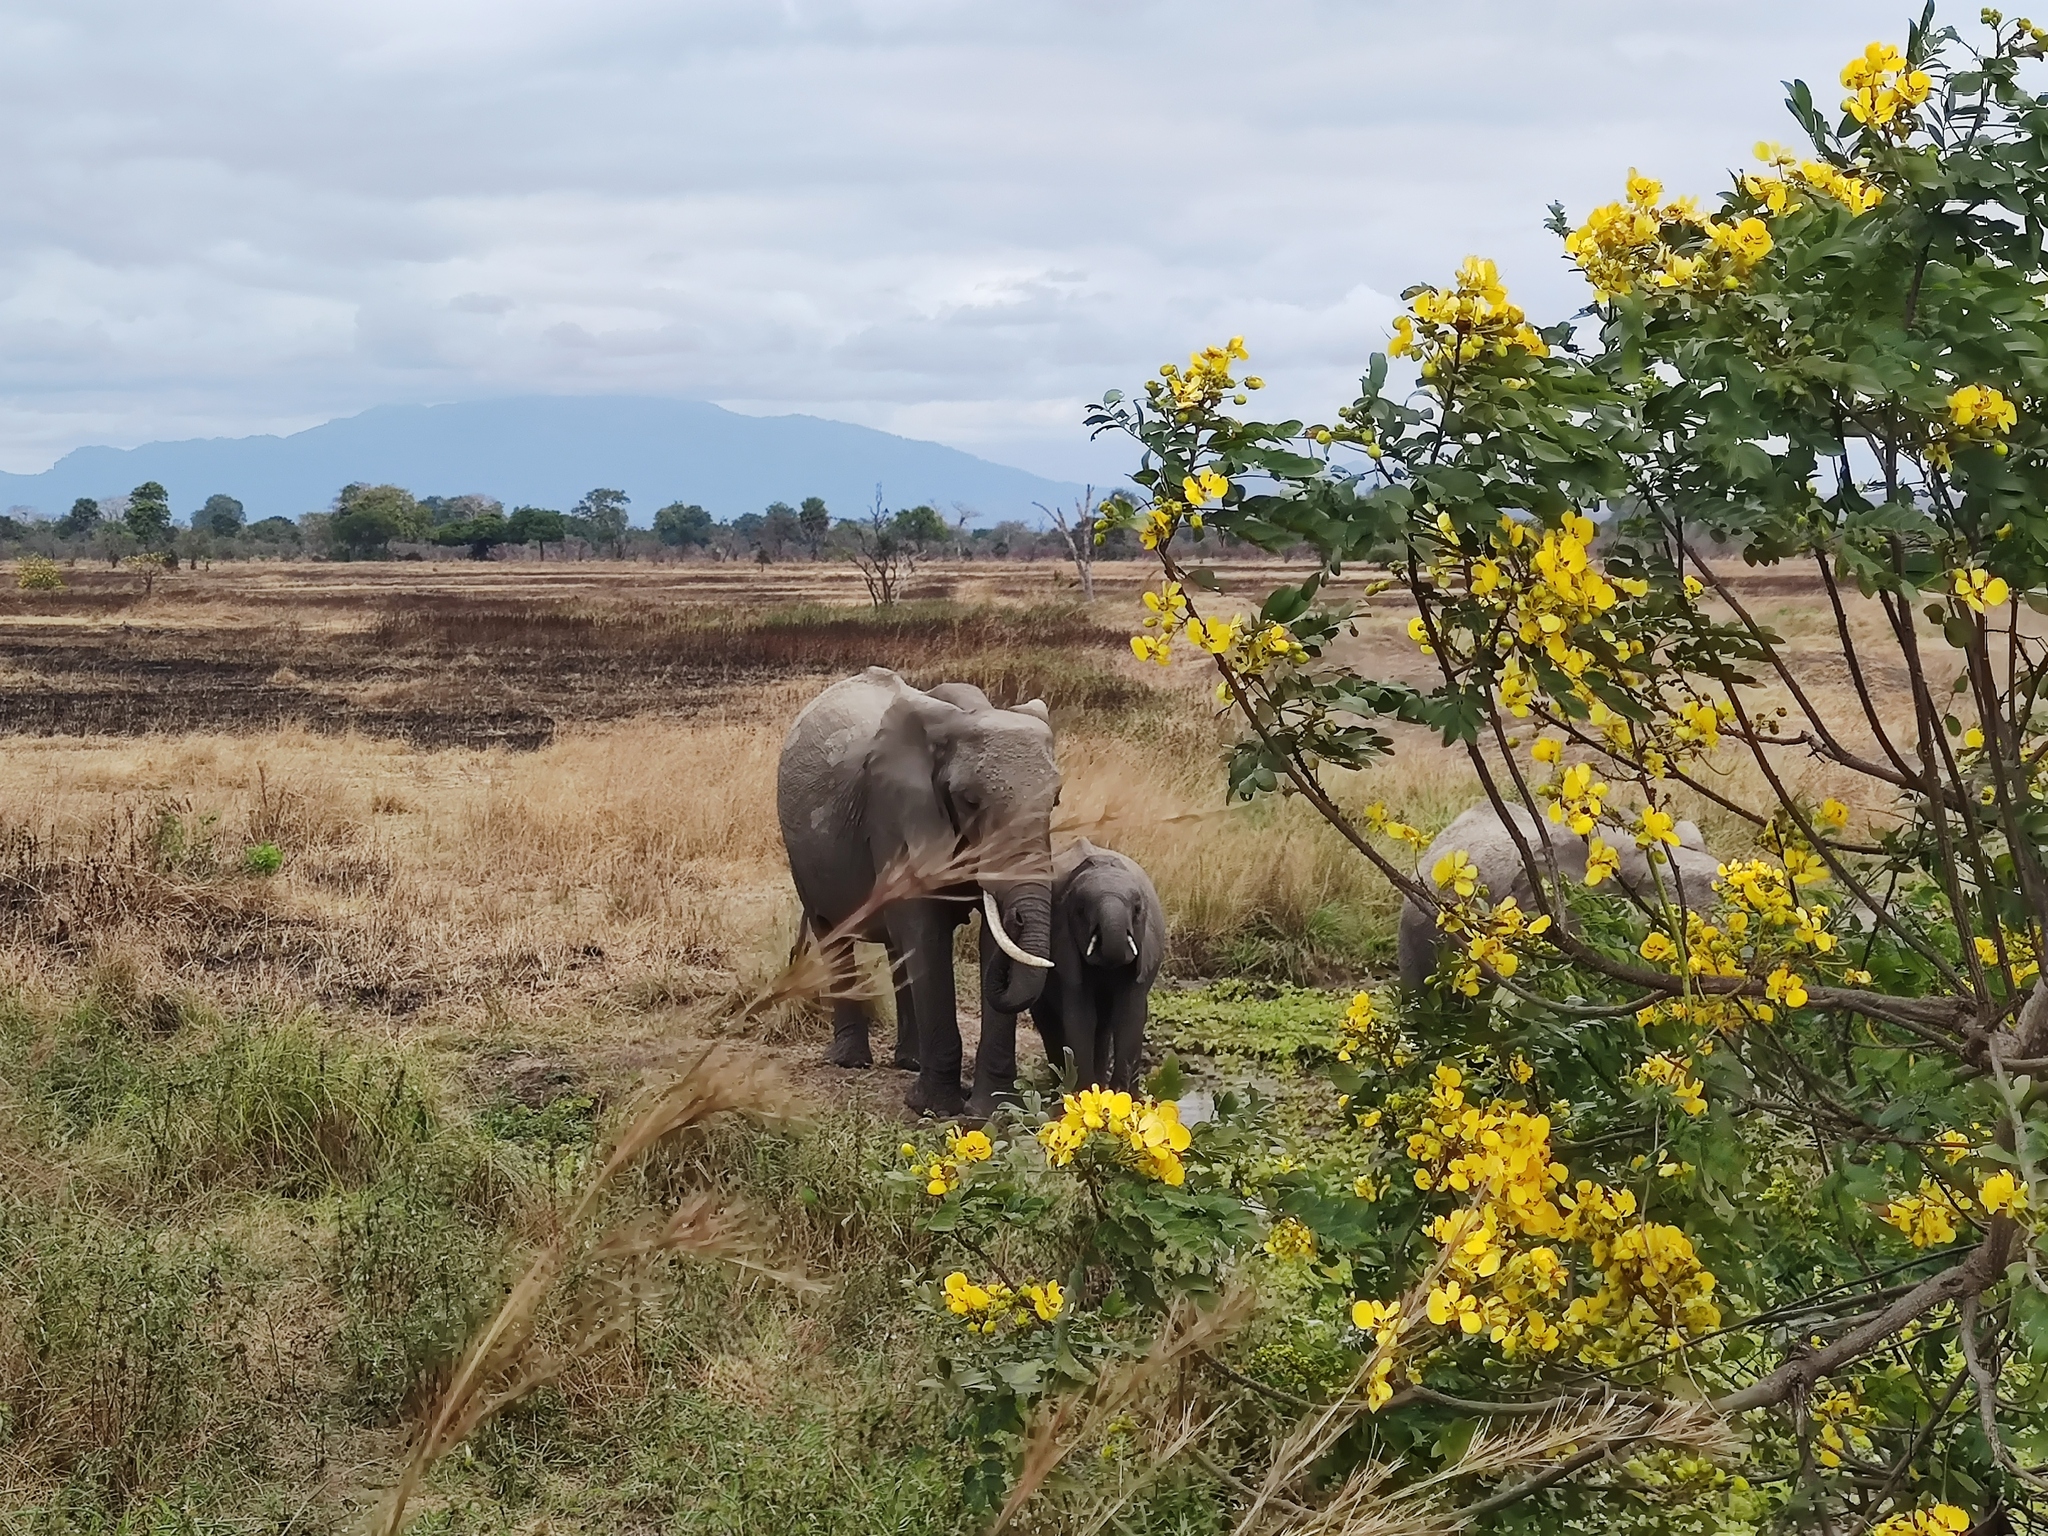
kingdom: Animalia
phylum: Chordata
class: Mammalia
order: Proboscidea
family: Elephantidae
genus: Loxodonta
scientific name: Loxodonta africana
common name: African elephant
